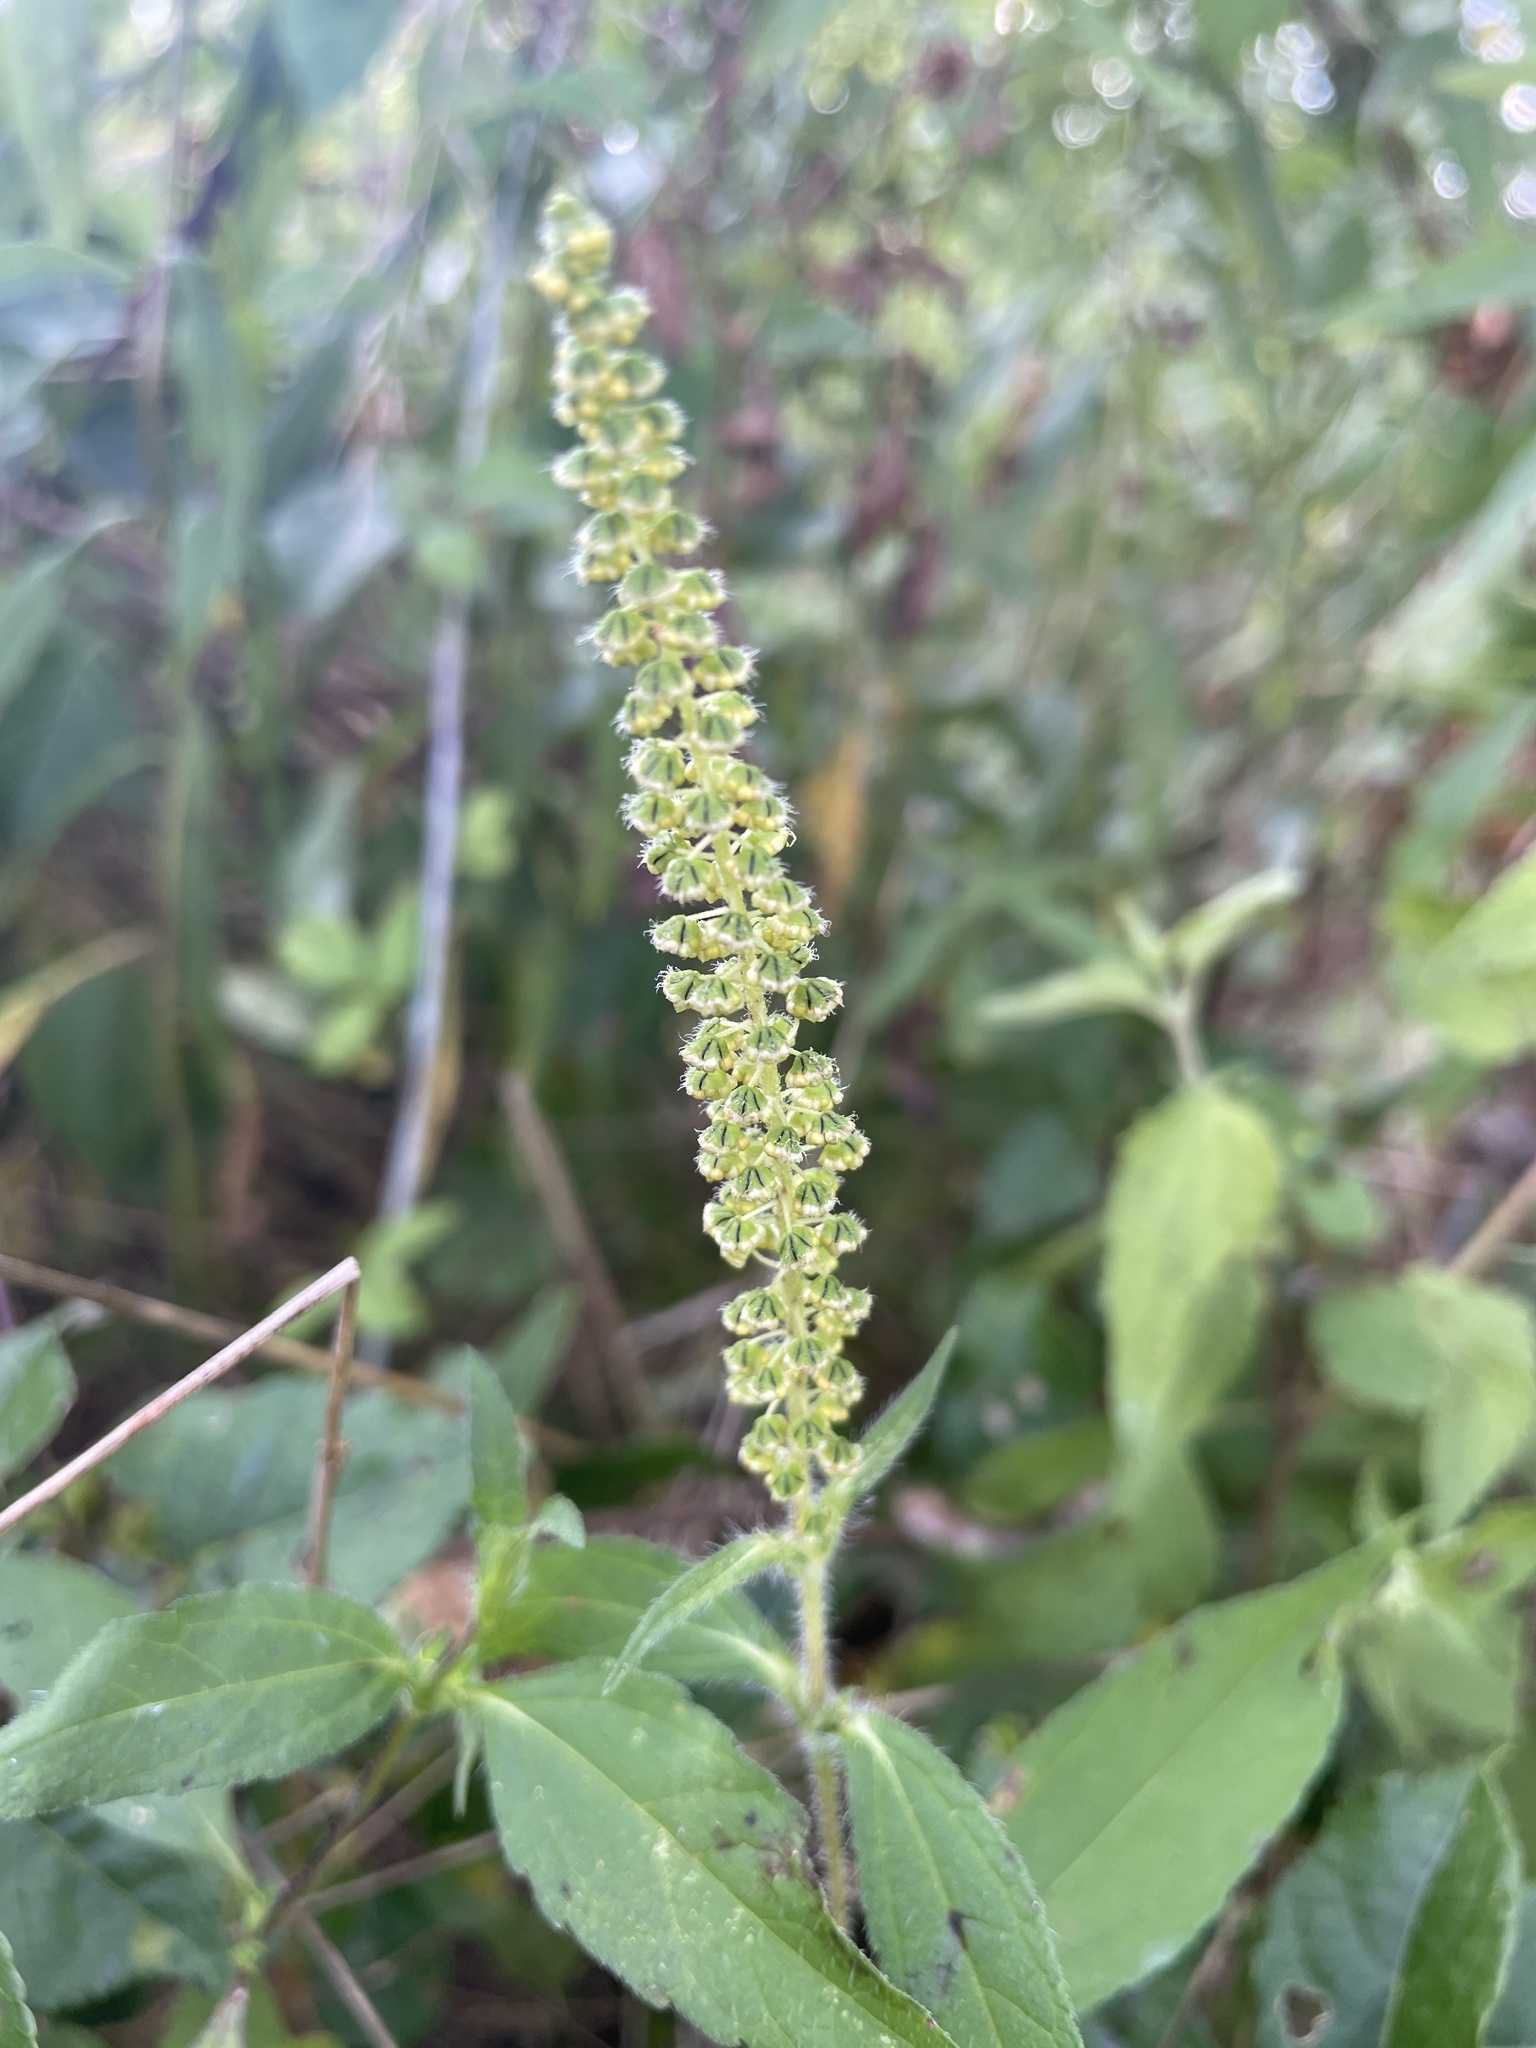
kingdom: Plantae
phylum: Tracheophyta
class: Magnoliopsida
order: Asterales
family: Asteraceae
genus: Ambrosia
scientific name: Ambrosia trifida
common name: Giant ragweed
